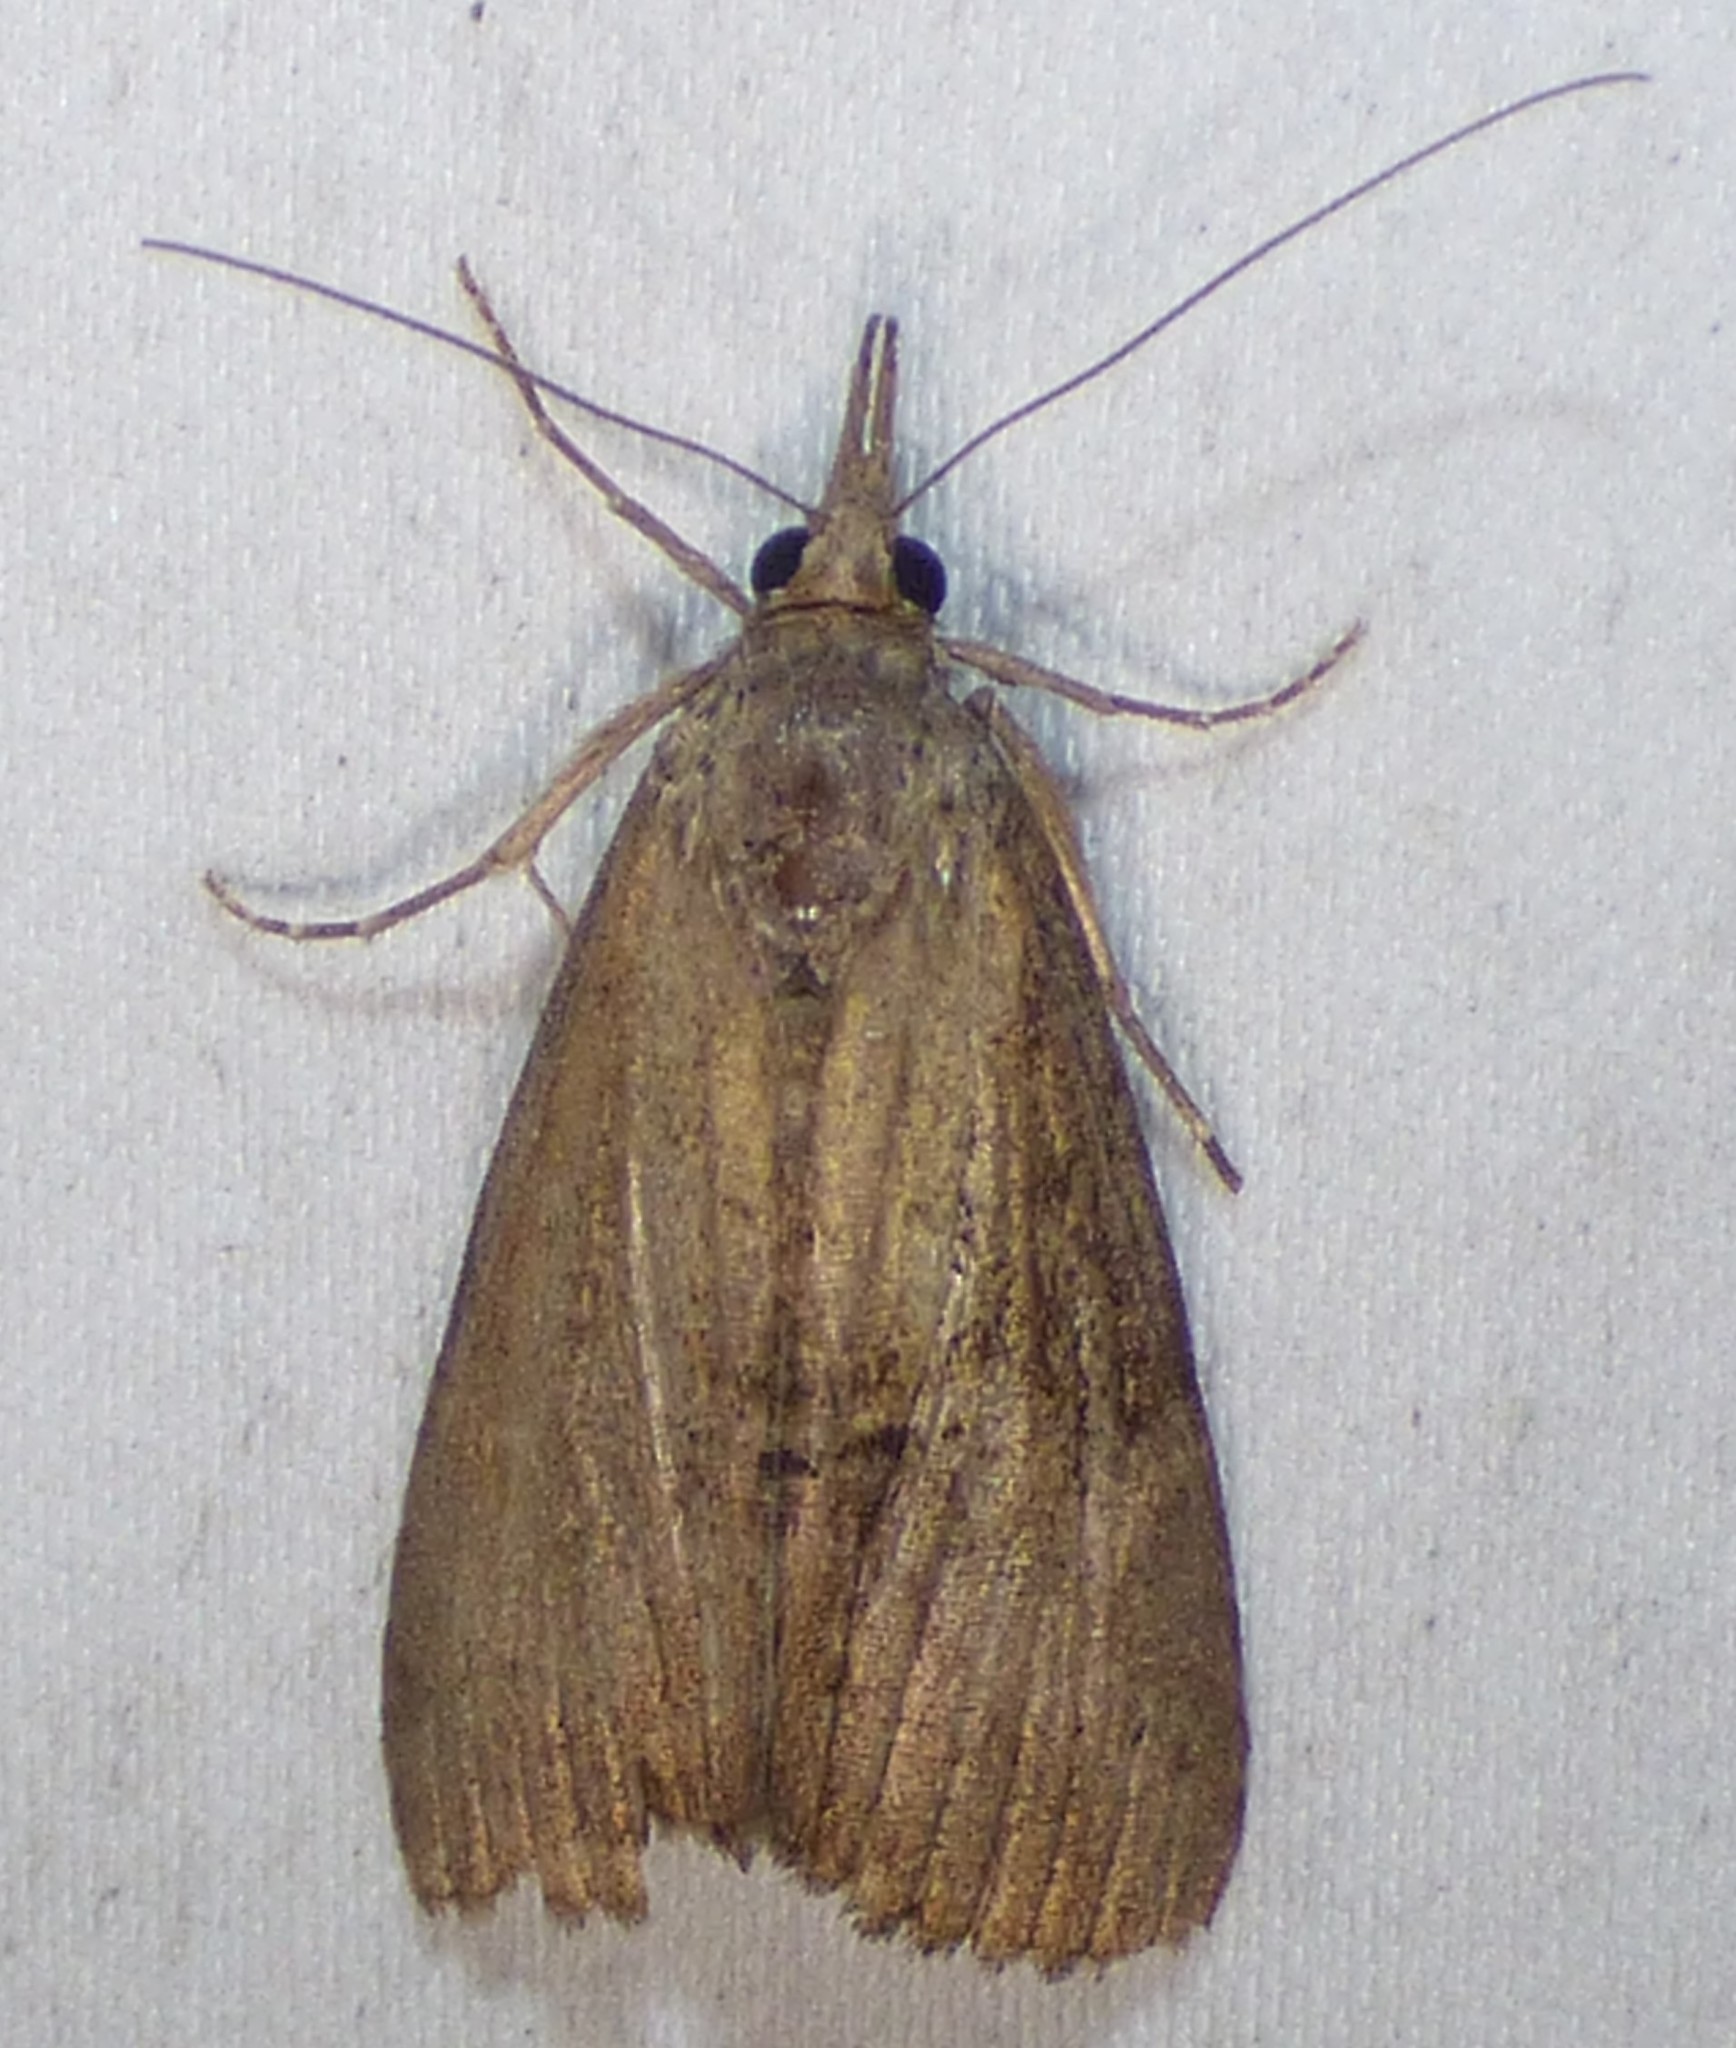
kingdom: Animalia
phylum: Arthropoda
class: Insecta
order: Lepidoptera
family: Erebidae
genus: Hypena
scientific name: Hypena scabra
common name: Green cloverworm
